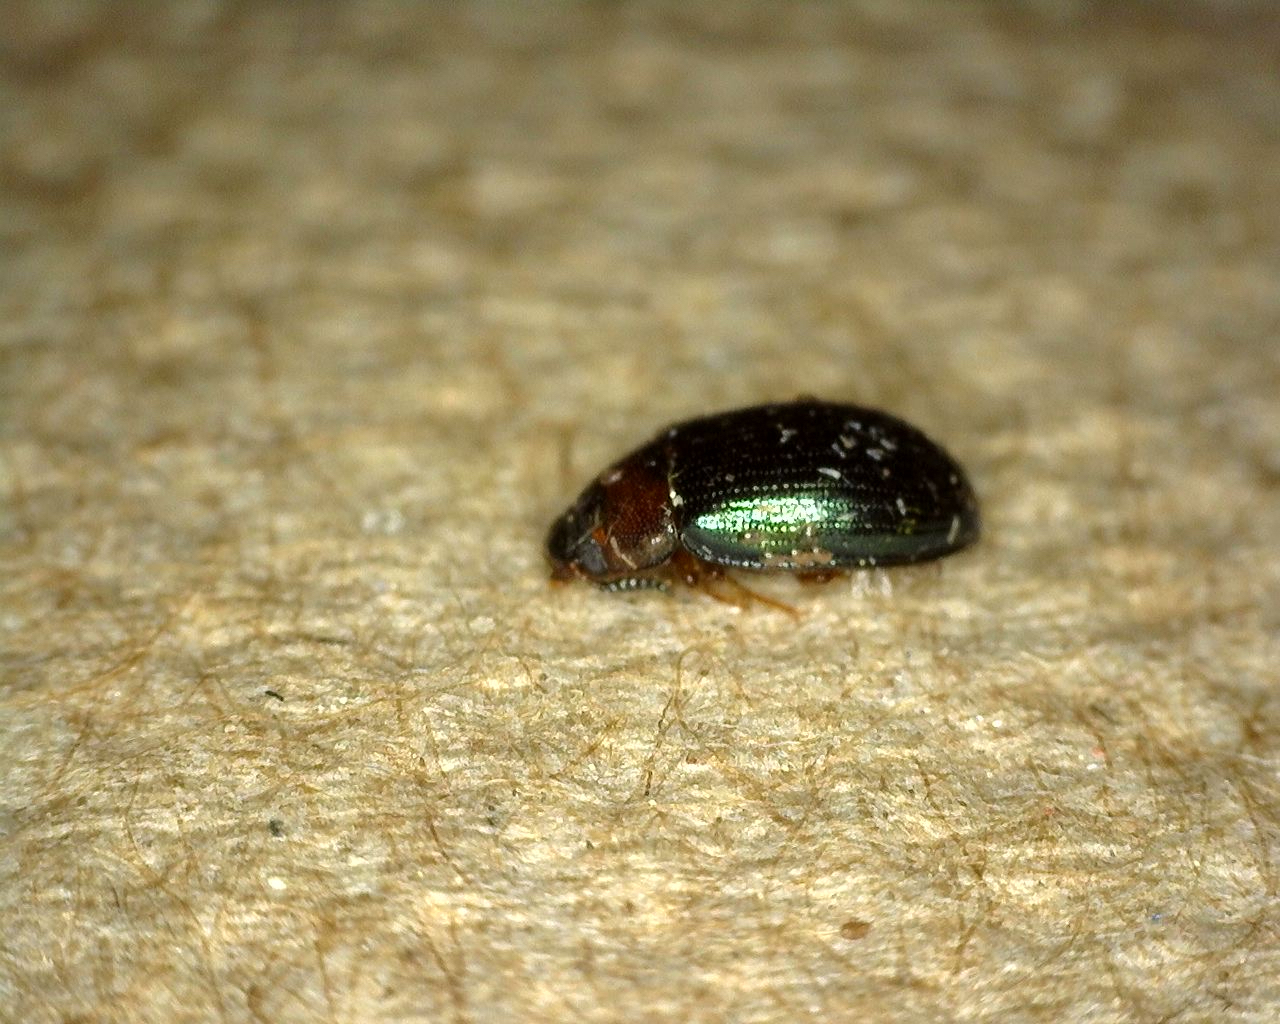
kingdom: Animalia
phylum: Arthropoda
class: Insecta
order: Coleoptera
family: Tenebrionidae
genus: Neomida
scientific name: Neomida bicornis
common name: Two-horned darkling beetle
